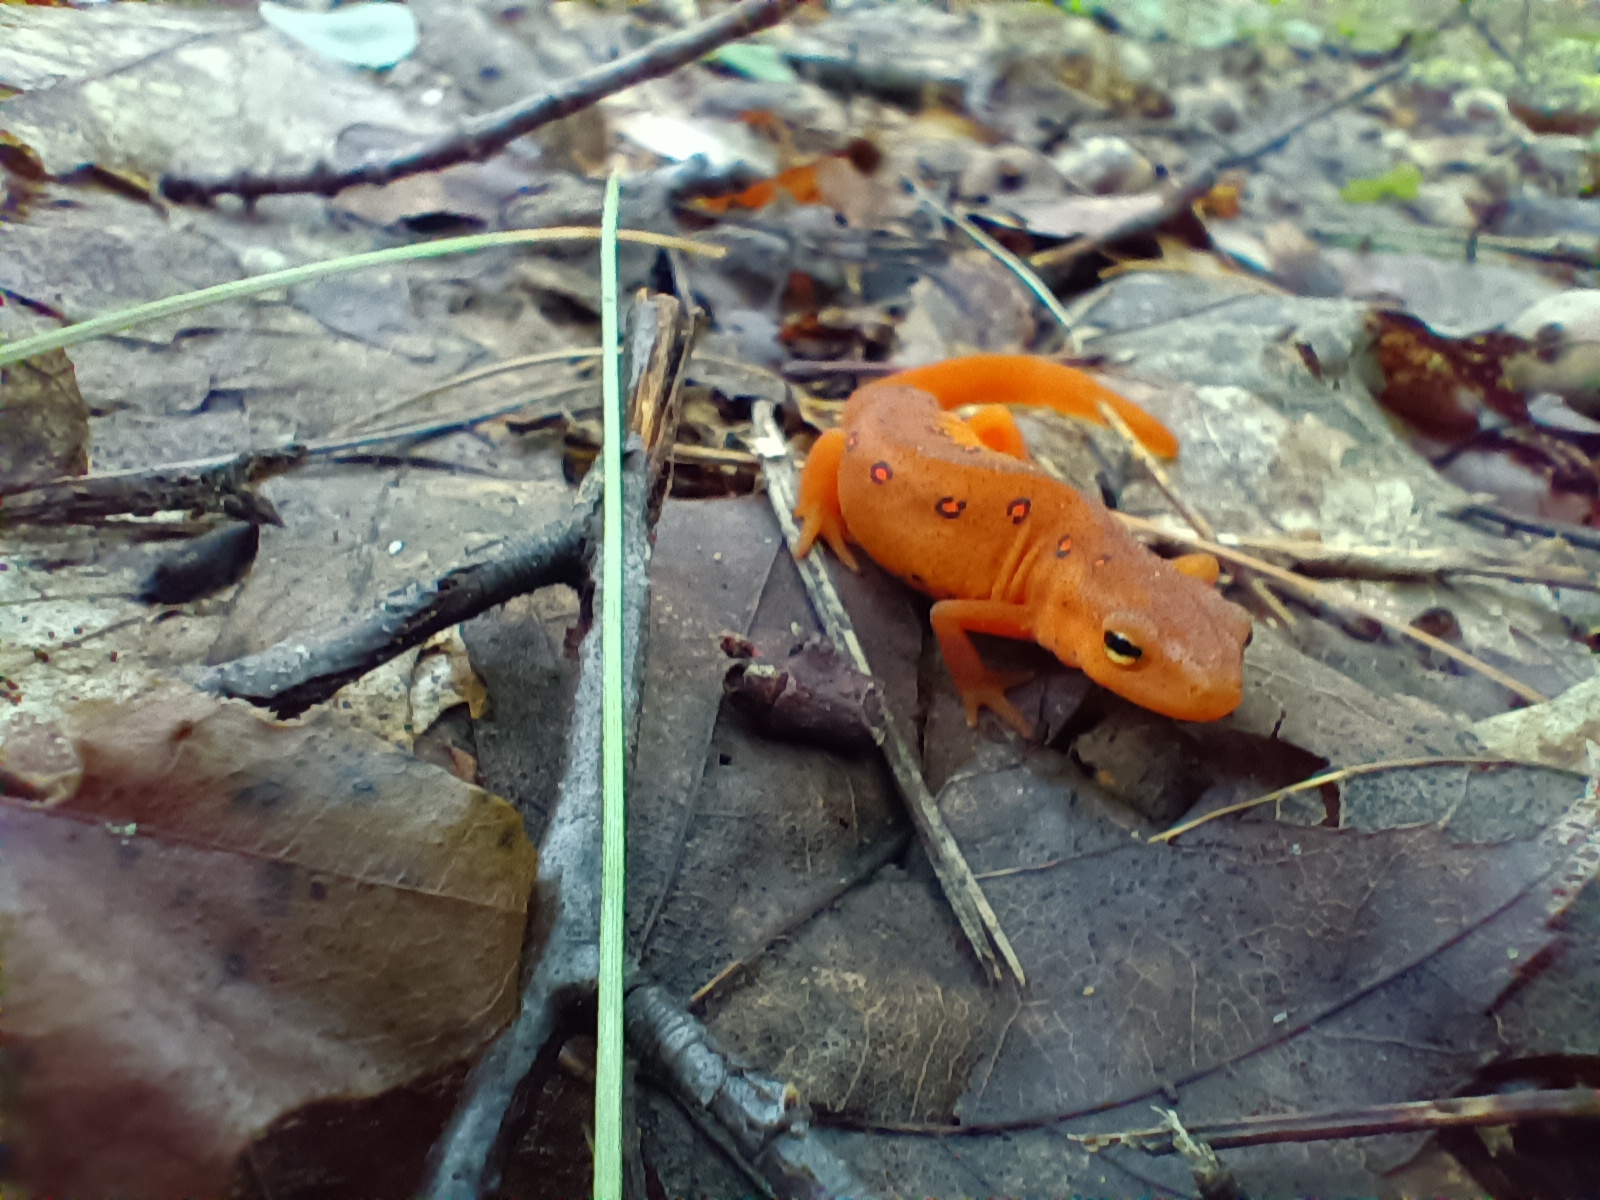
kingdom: Animalia
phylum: Chordata
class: Amphibia
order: Caudata
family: Salamandridae
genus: Notophthalmus
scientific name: Notophthalmus viridescens
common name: Eastern newt
